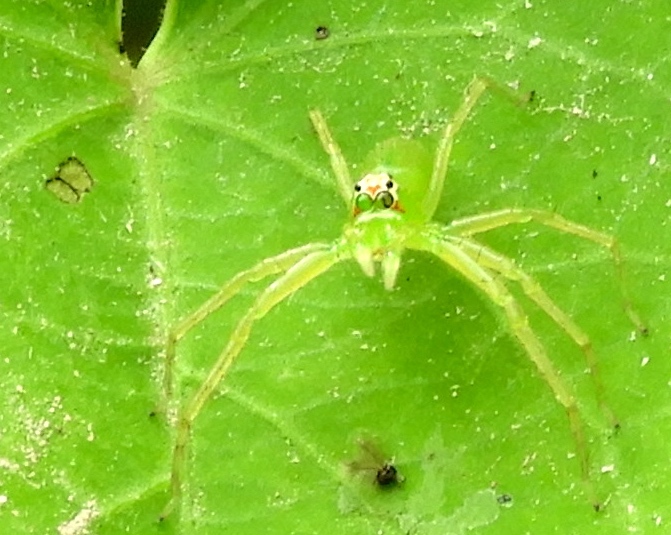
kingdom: Animalia
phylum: Arthropoda
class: Arachnida
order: Araneae
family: Salticidae
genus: Lyssomanes
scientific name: Lyssomanes
